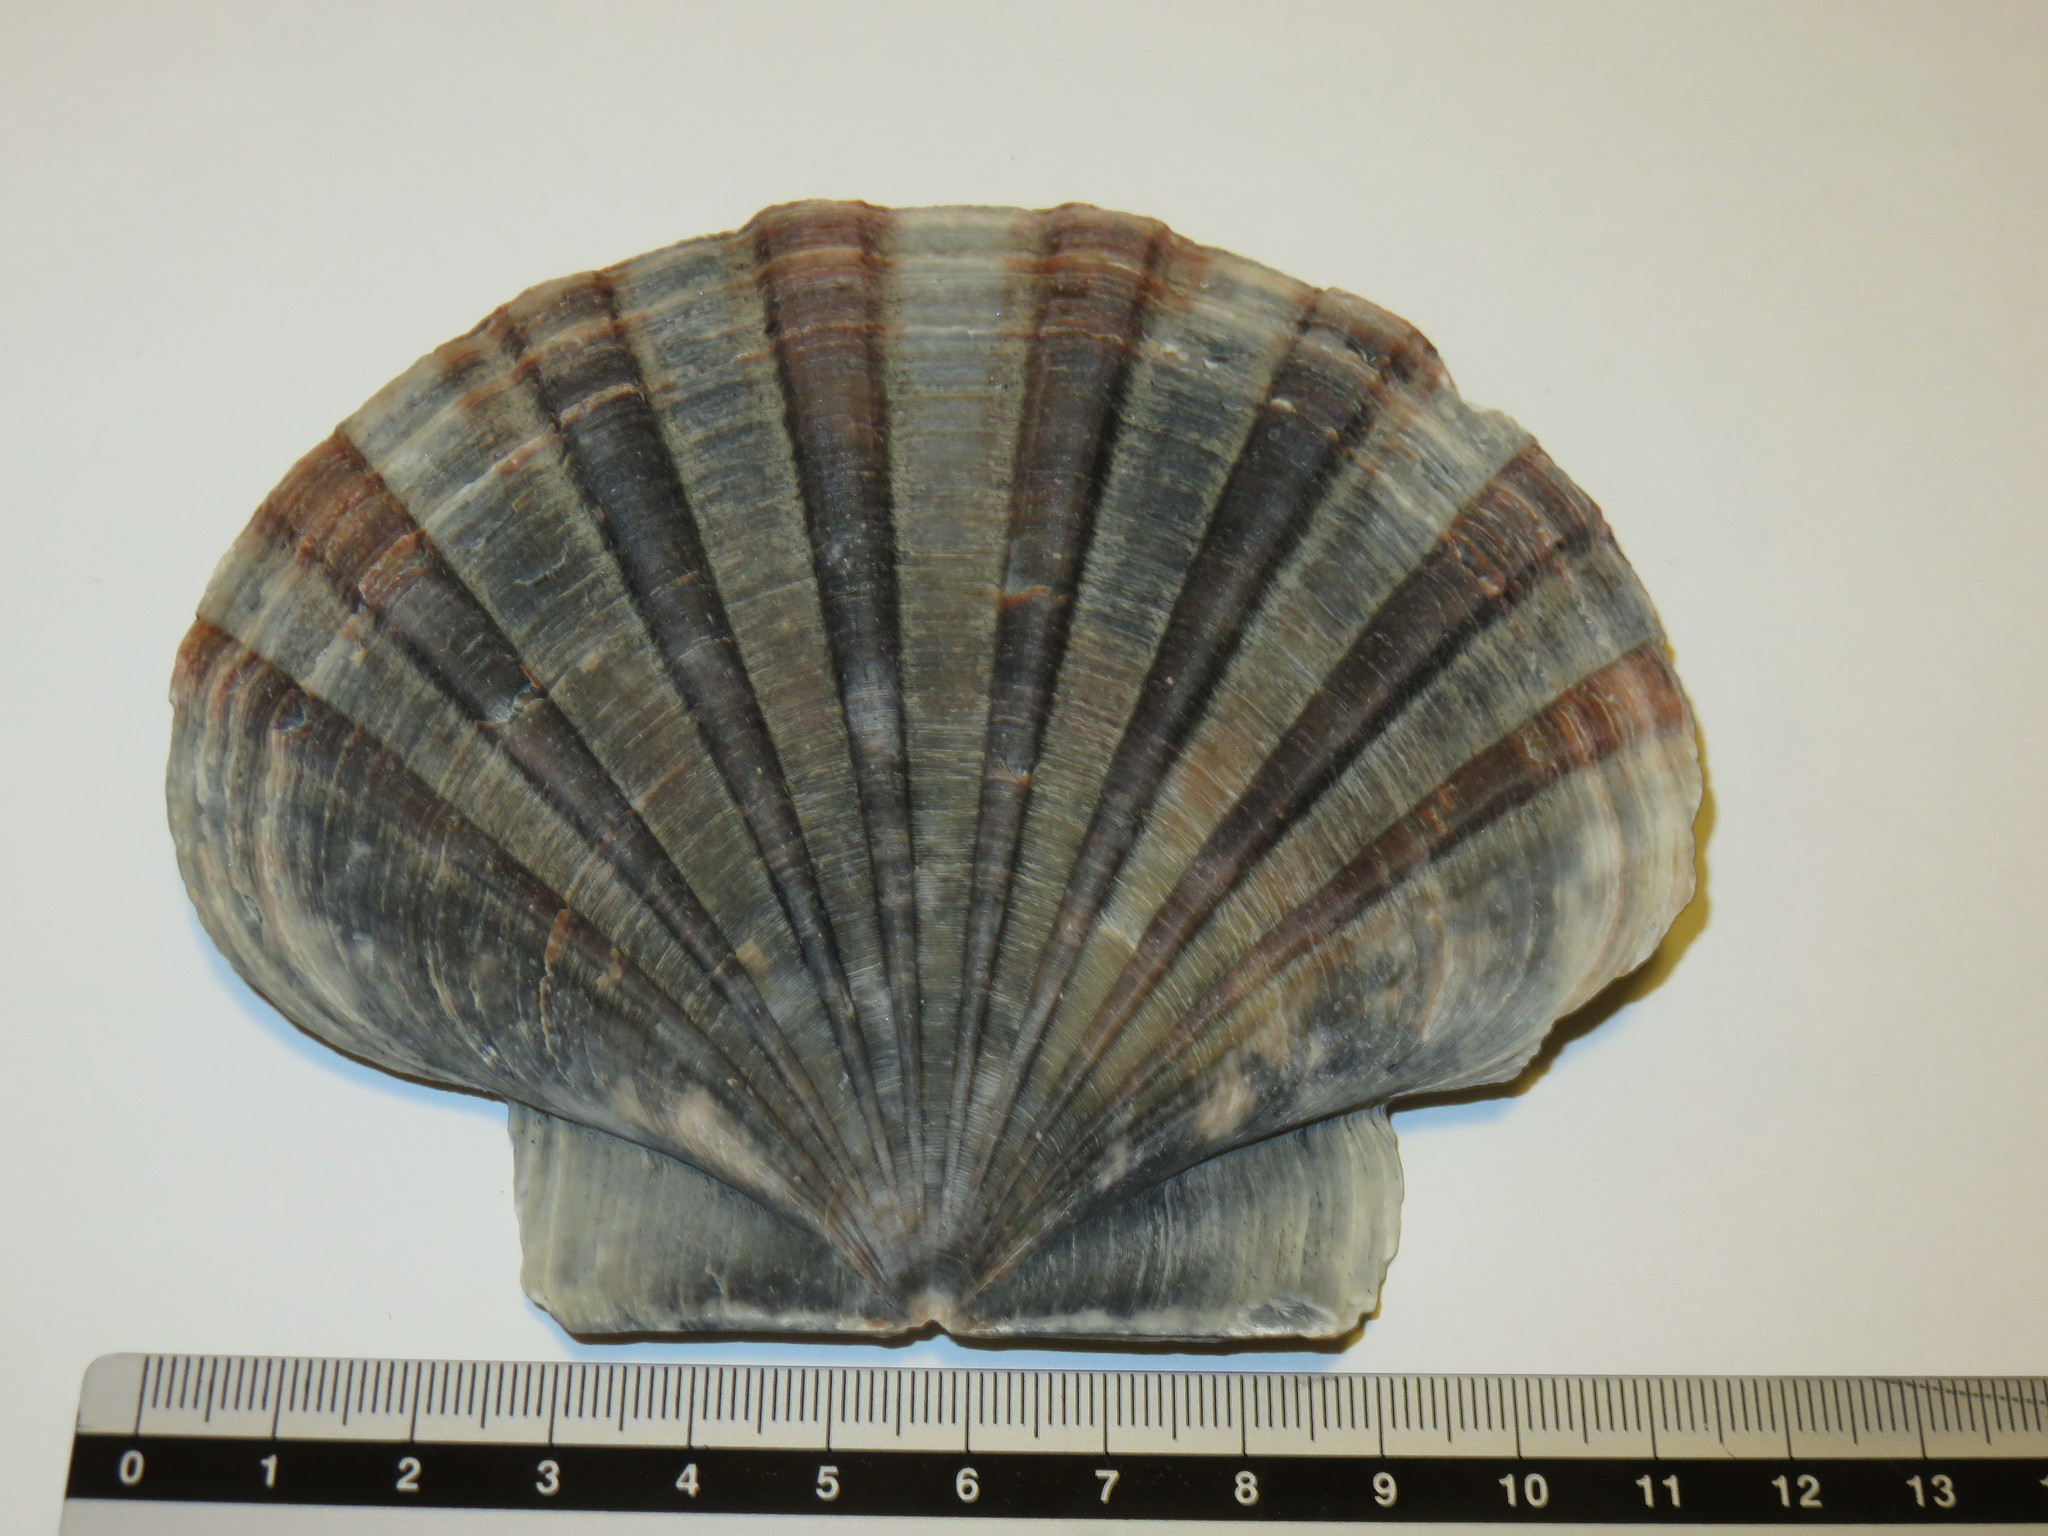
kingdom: Animalia
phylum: Mollusca
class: Bivalvia
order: Pectinida
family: Pectinidae
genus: Pecten
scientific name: Pecten albicans
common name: Japanese baking scallop
